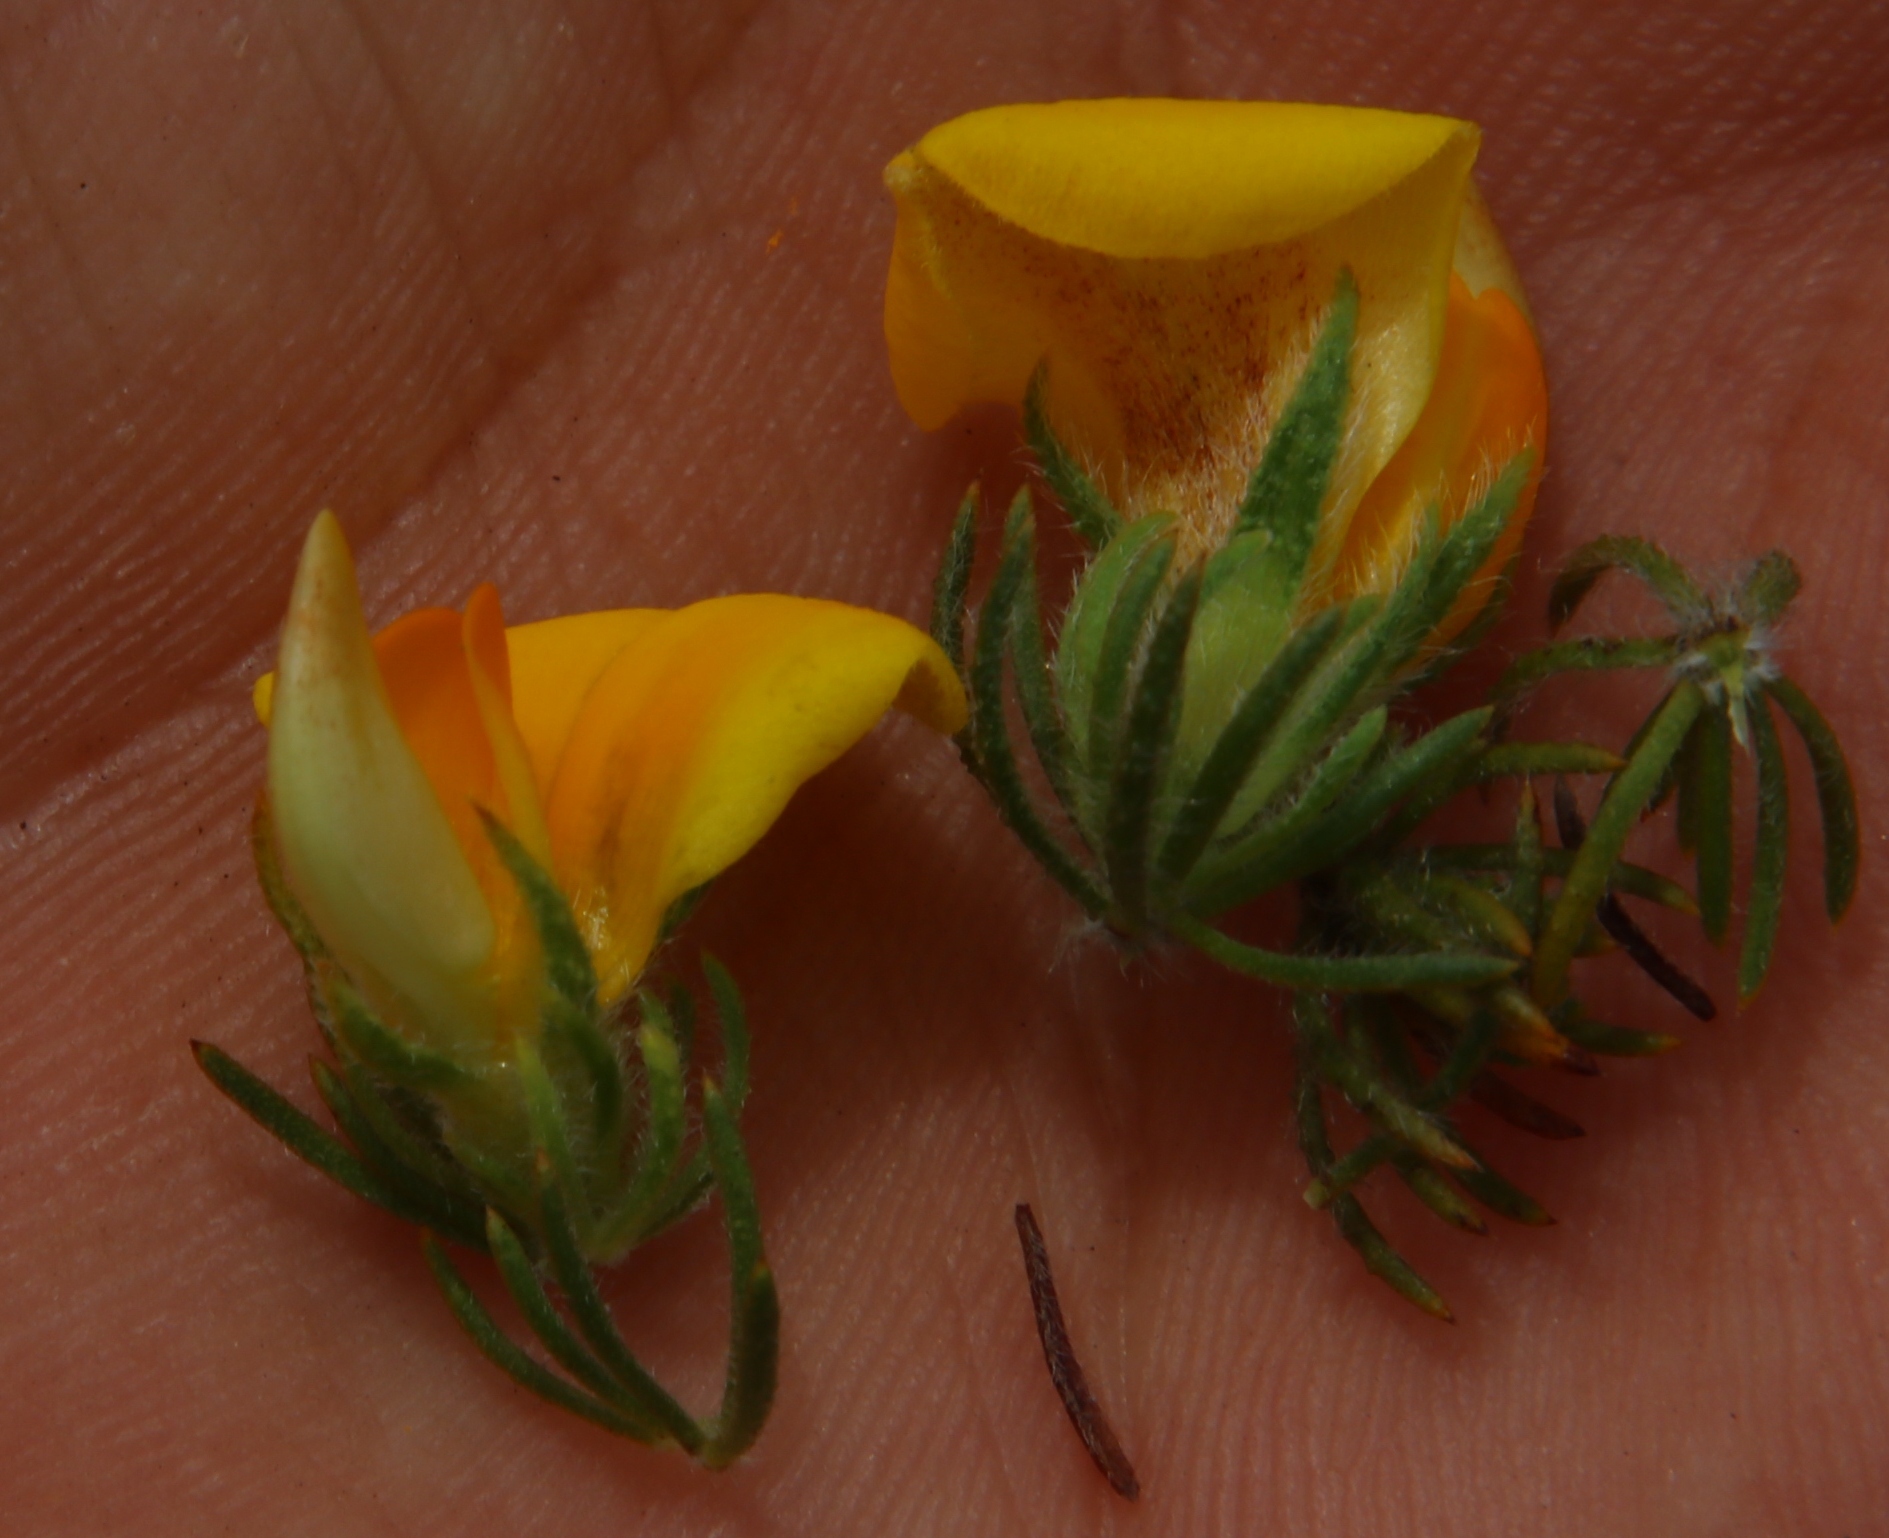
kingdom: Plantae
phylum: Tracheophyta
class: Magnoliopsida
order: Fabales
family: Fabaceae
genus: Aspalathus
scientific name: Aspalathus ciliaris
